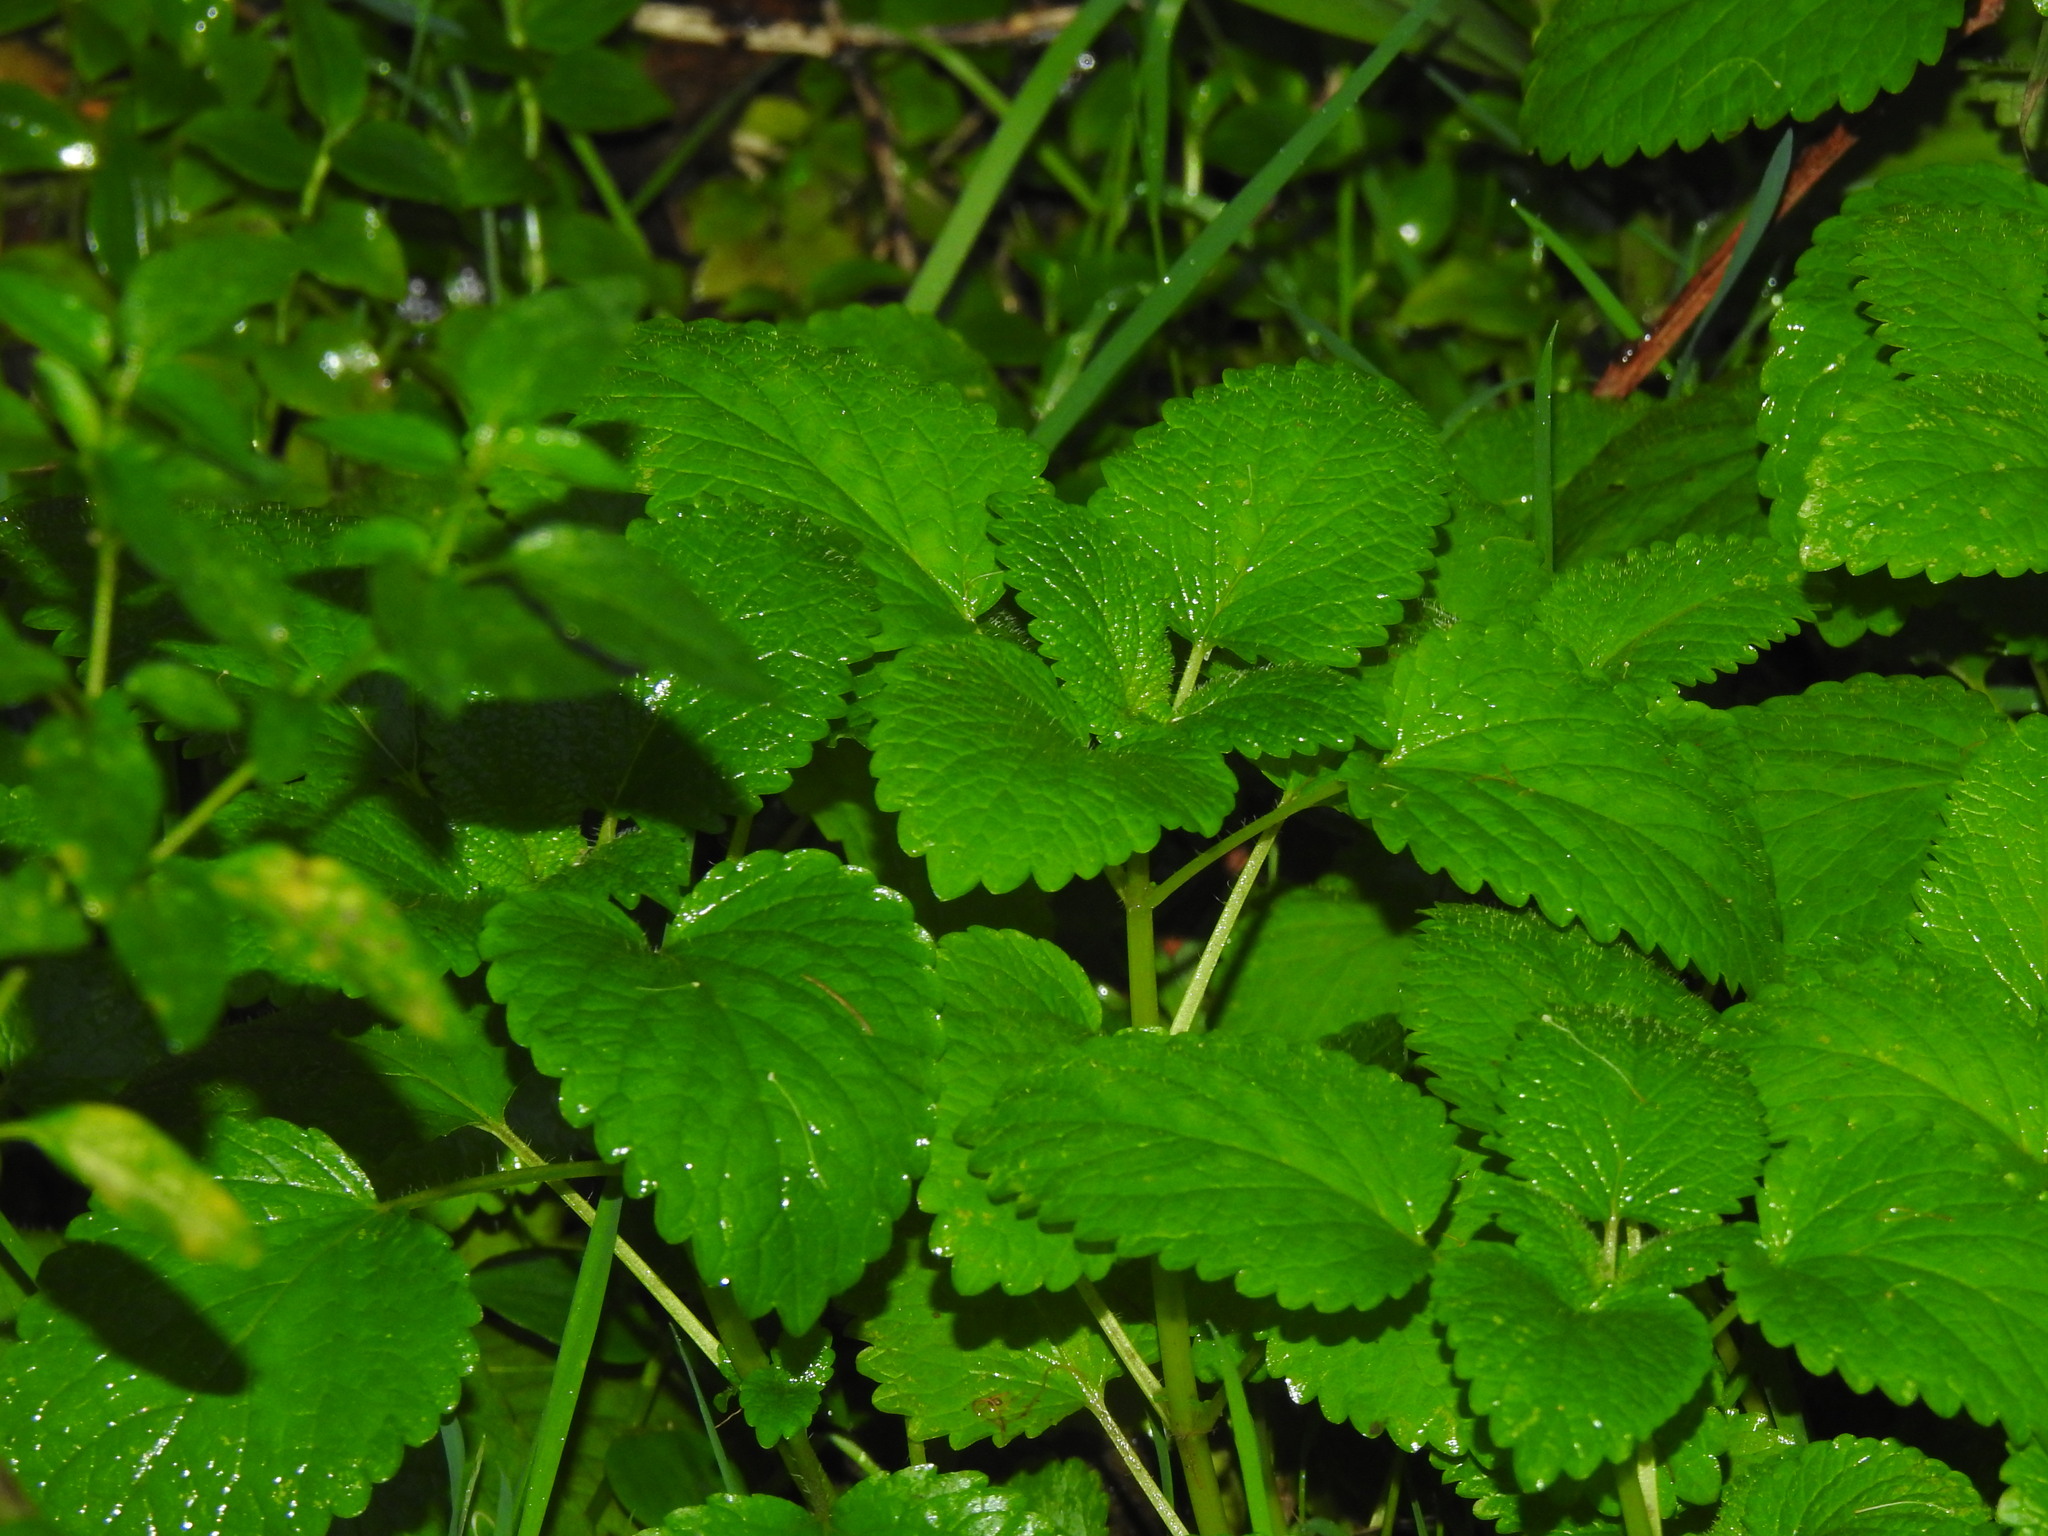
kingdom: Plantae
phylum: Tracheophyta
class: Magnoliopsida
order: Lamiales
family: Lamiaceae
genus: Melissa
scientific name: Melissa officinalis
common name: Balm
